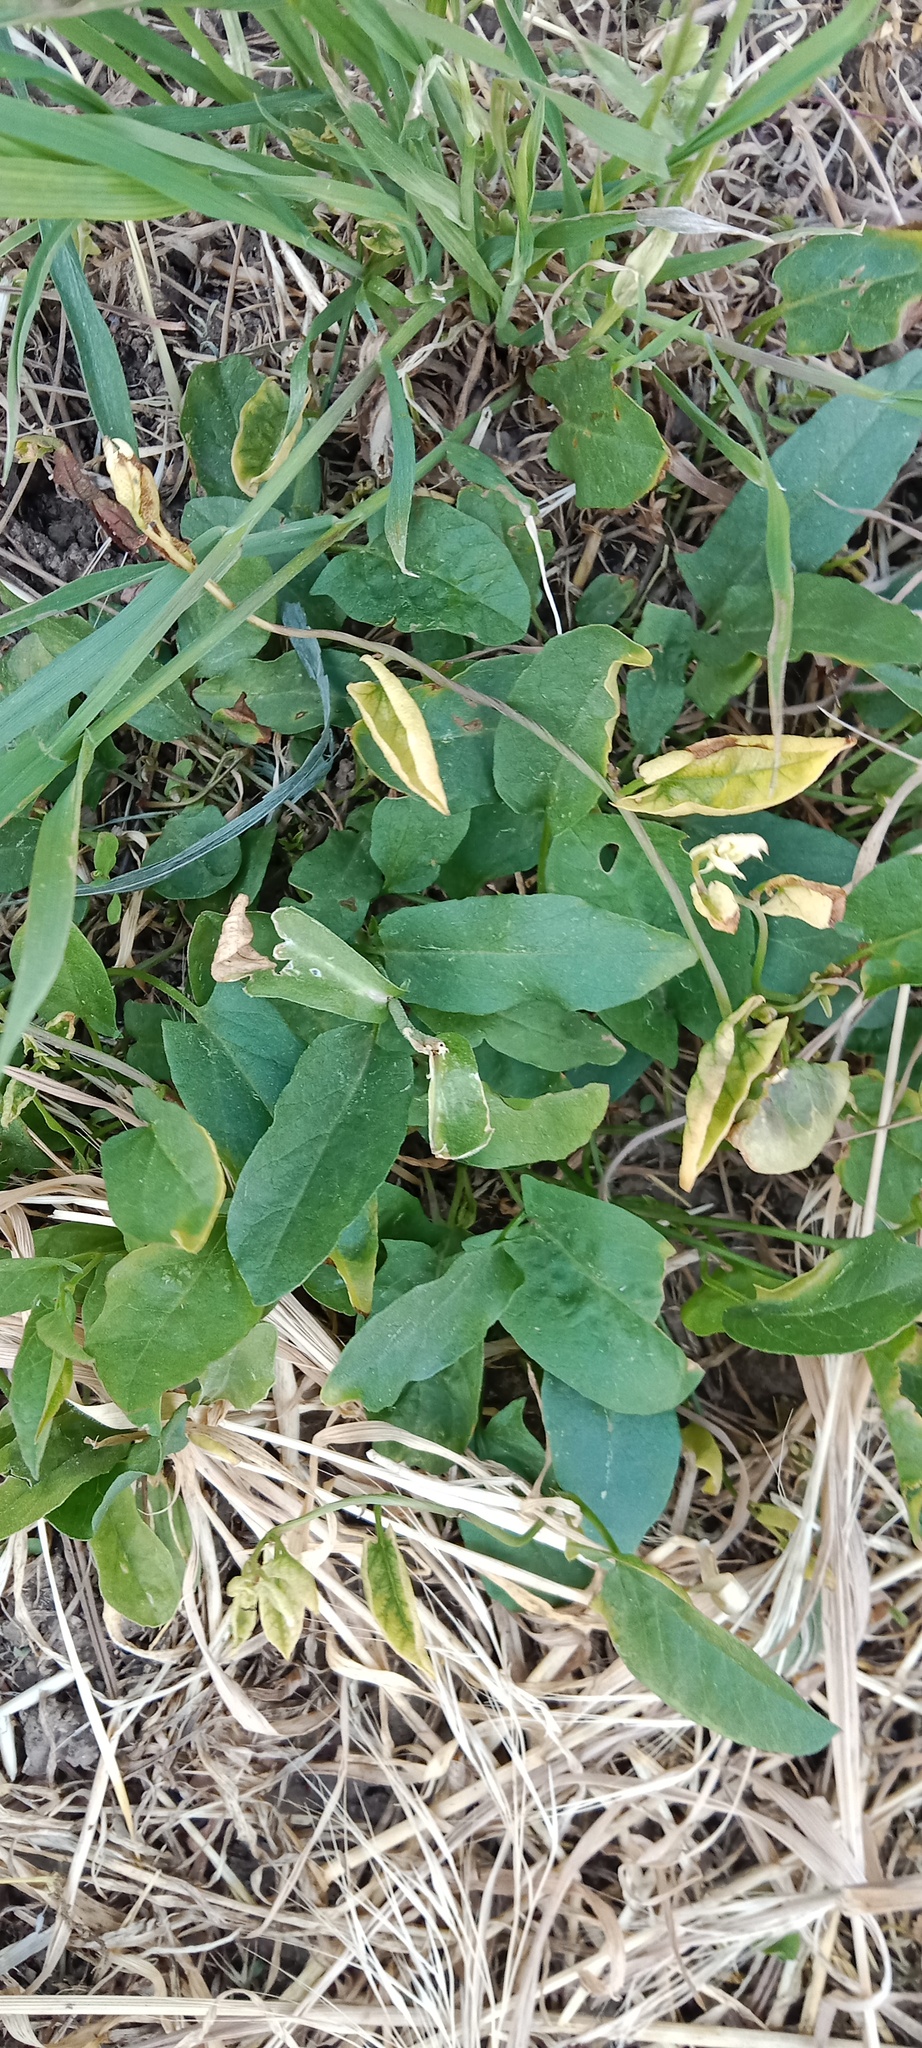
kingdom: Plantae
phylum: Tracheophyta
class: Magnoliopsida
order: Solanales
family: Convolvulaceae
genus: Convolvulus
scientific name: Convolvulus arvensis
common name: Field bindweed
